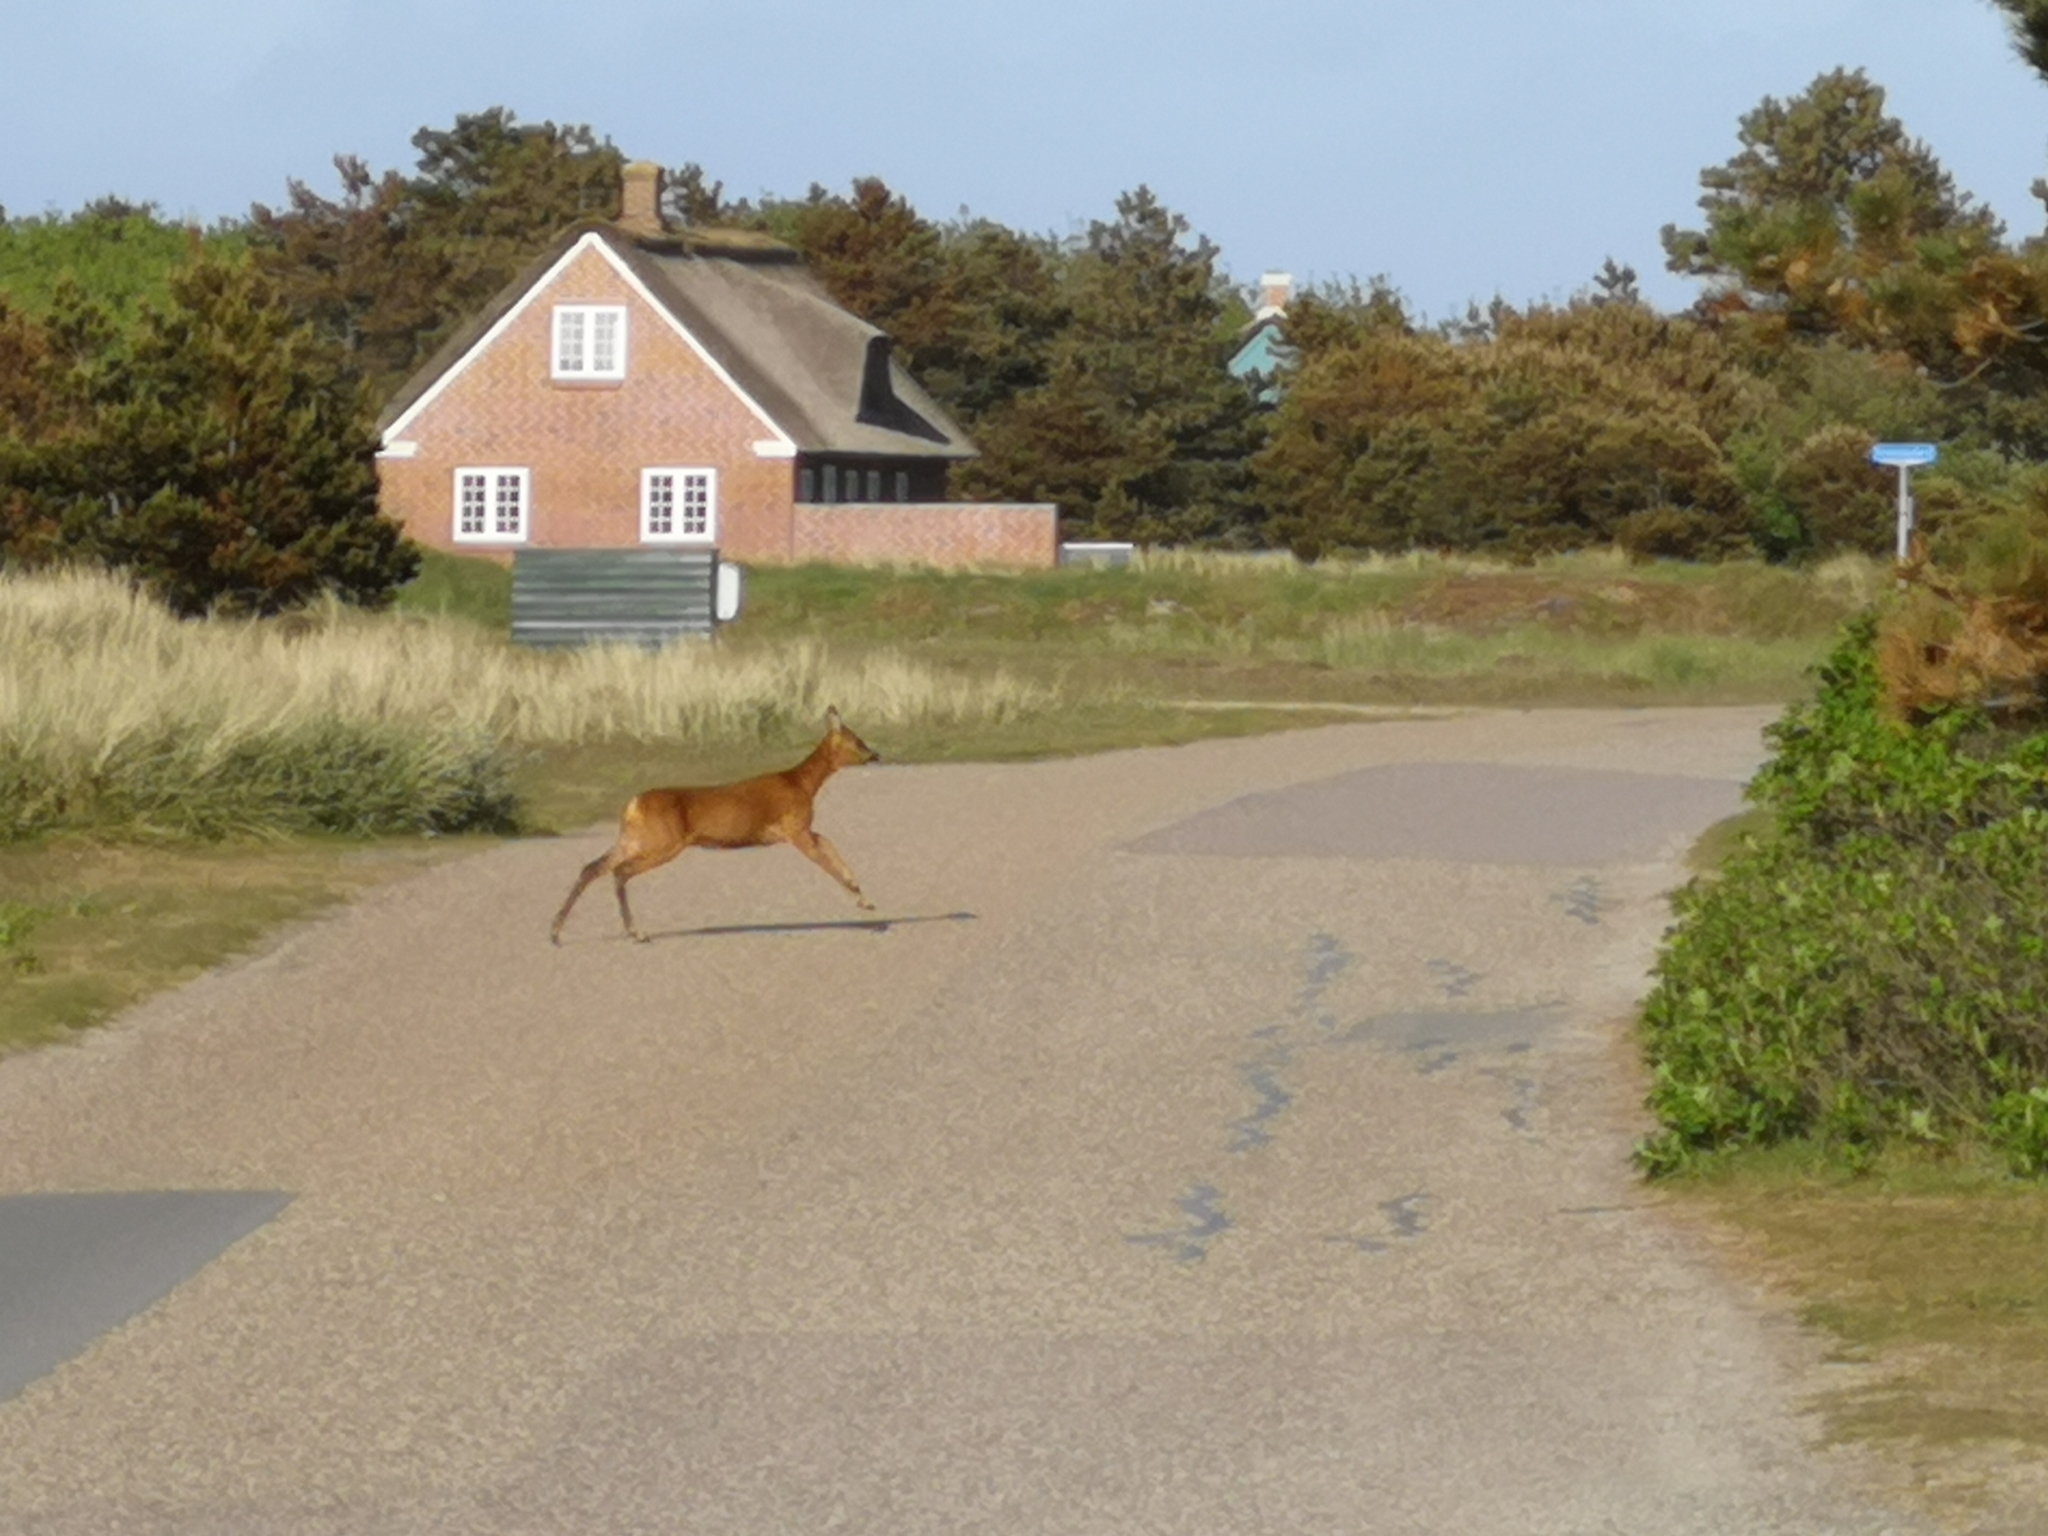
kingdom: Animalia
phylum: Chordata
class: Mammalia
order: Artiodactyla
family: Cervidae
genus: Capreolus
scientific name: Capreolus capreolus
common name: Western roe deer
